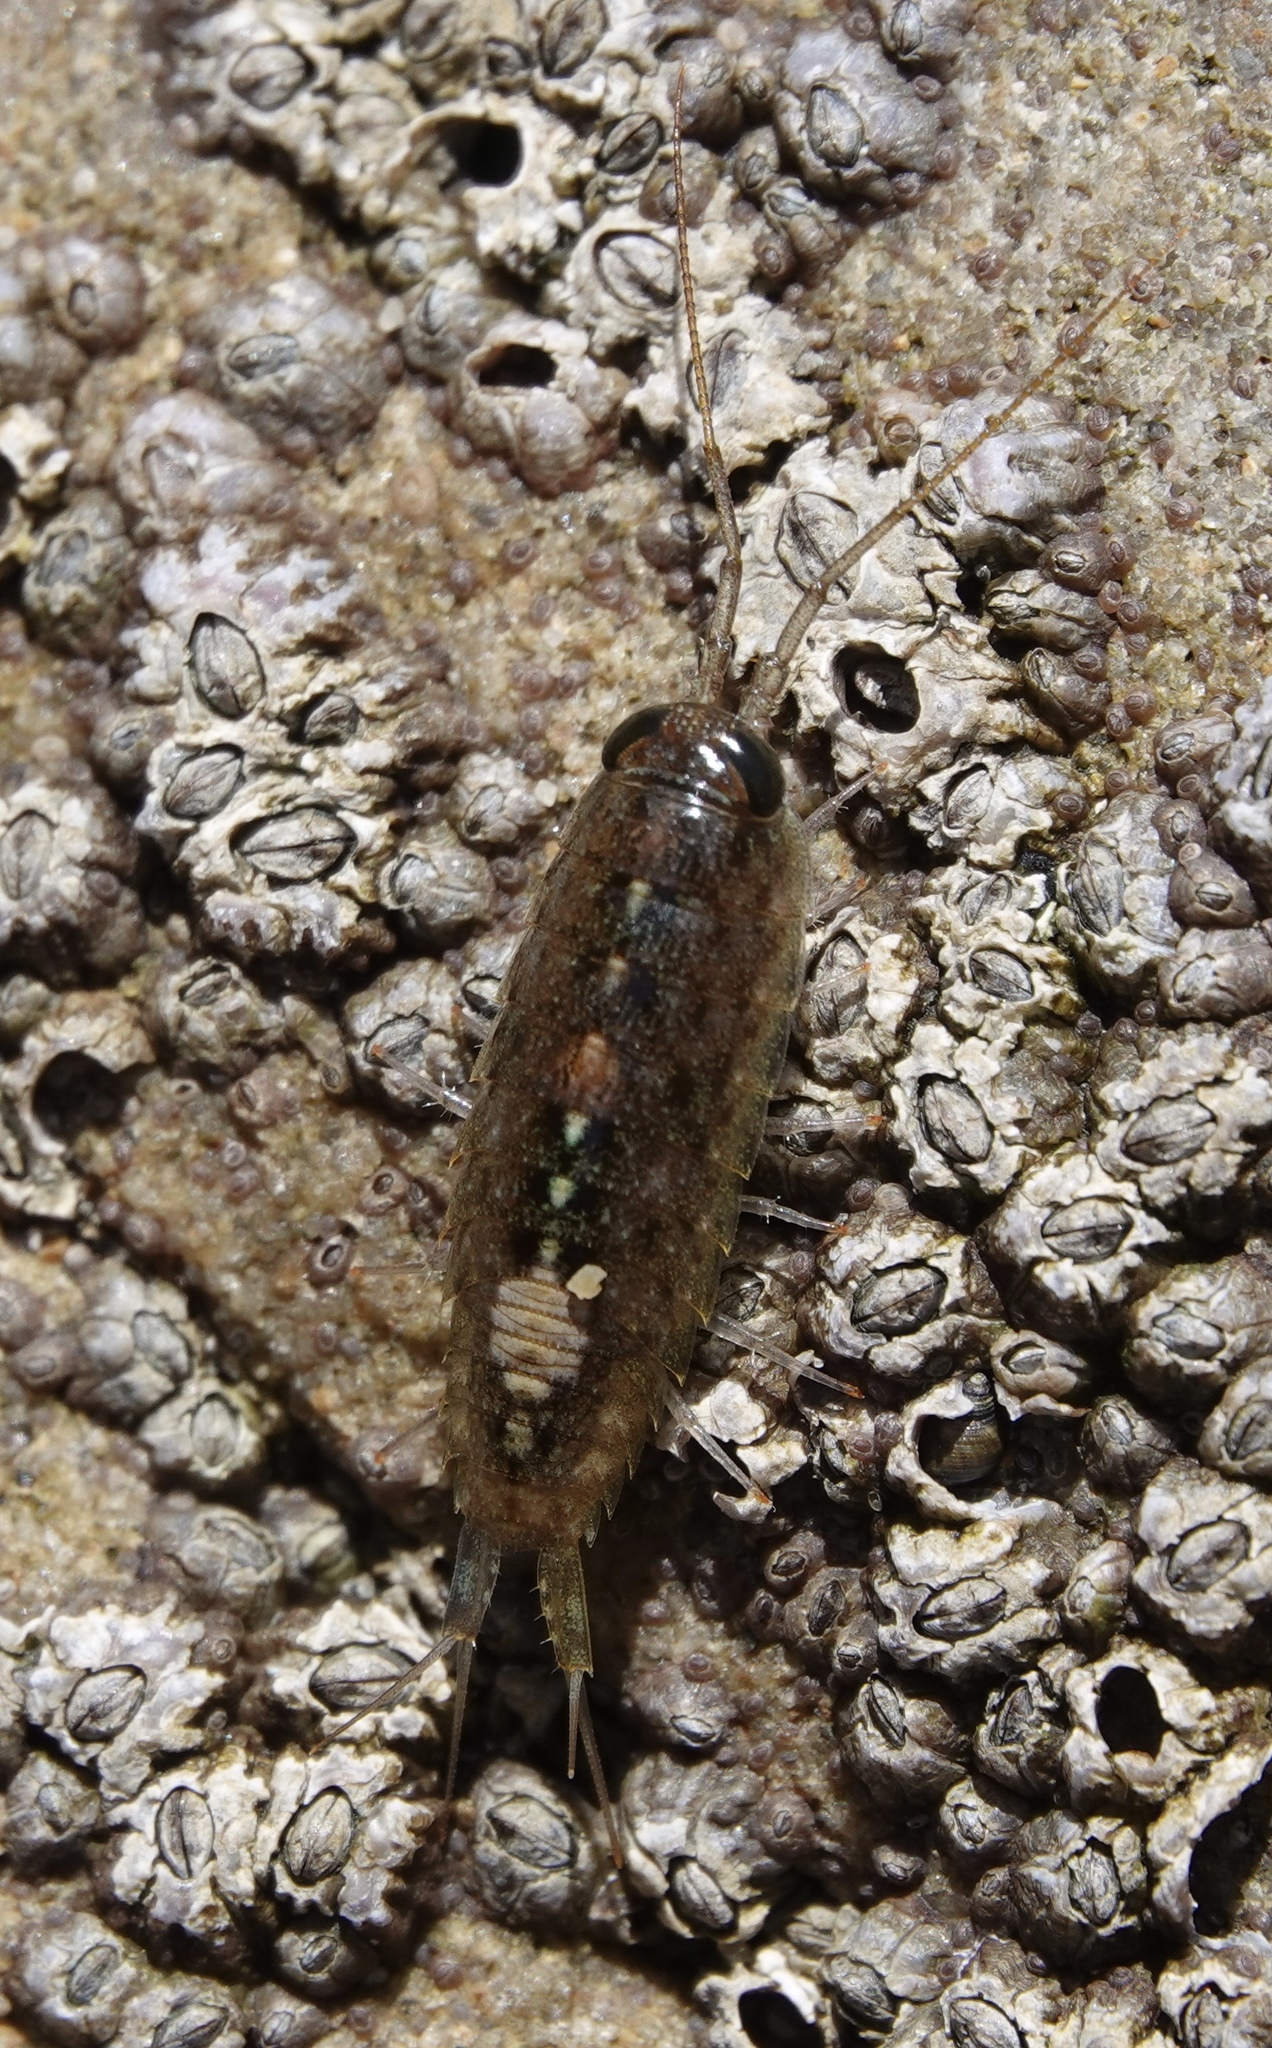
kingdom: Animalia
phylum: Arthropoda
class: Malacostraca
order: Isopoda
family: Ligiidae
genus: Ligia
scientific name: Ligia occidentalis
